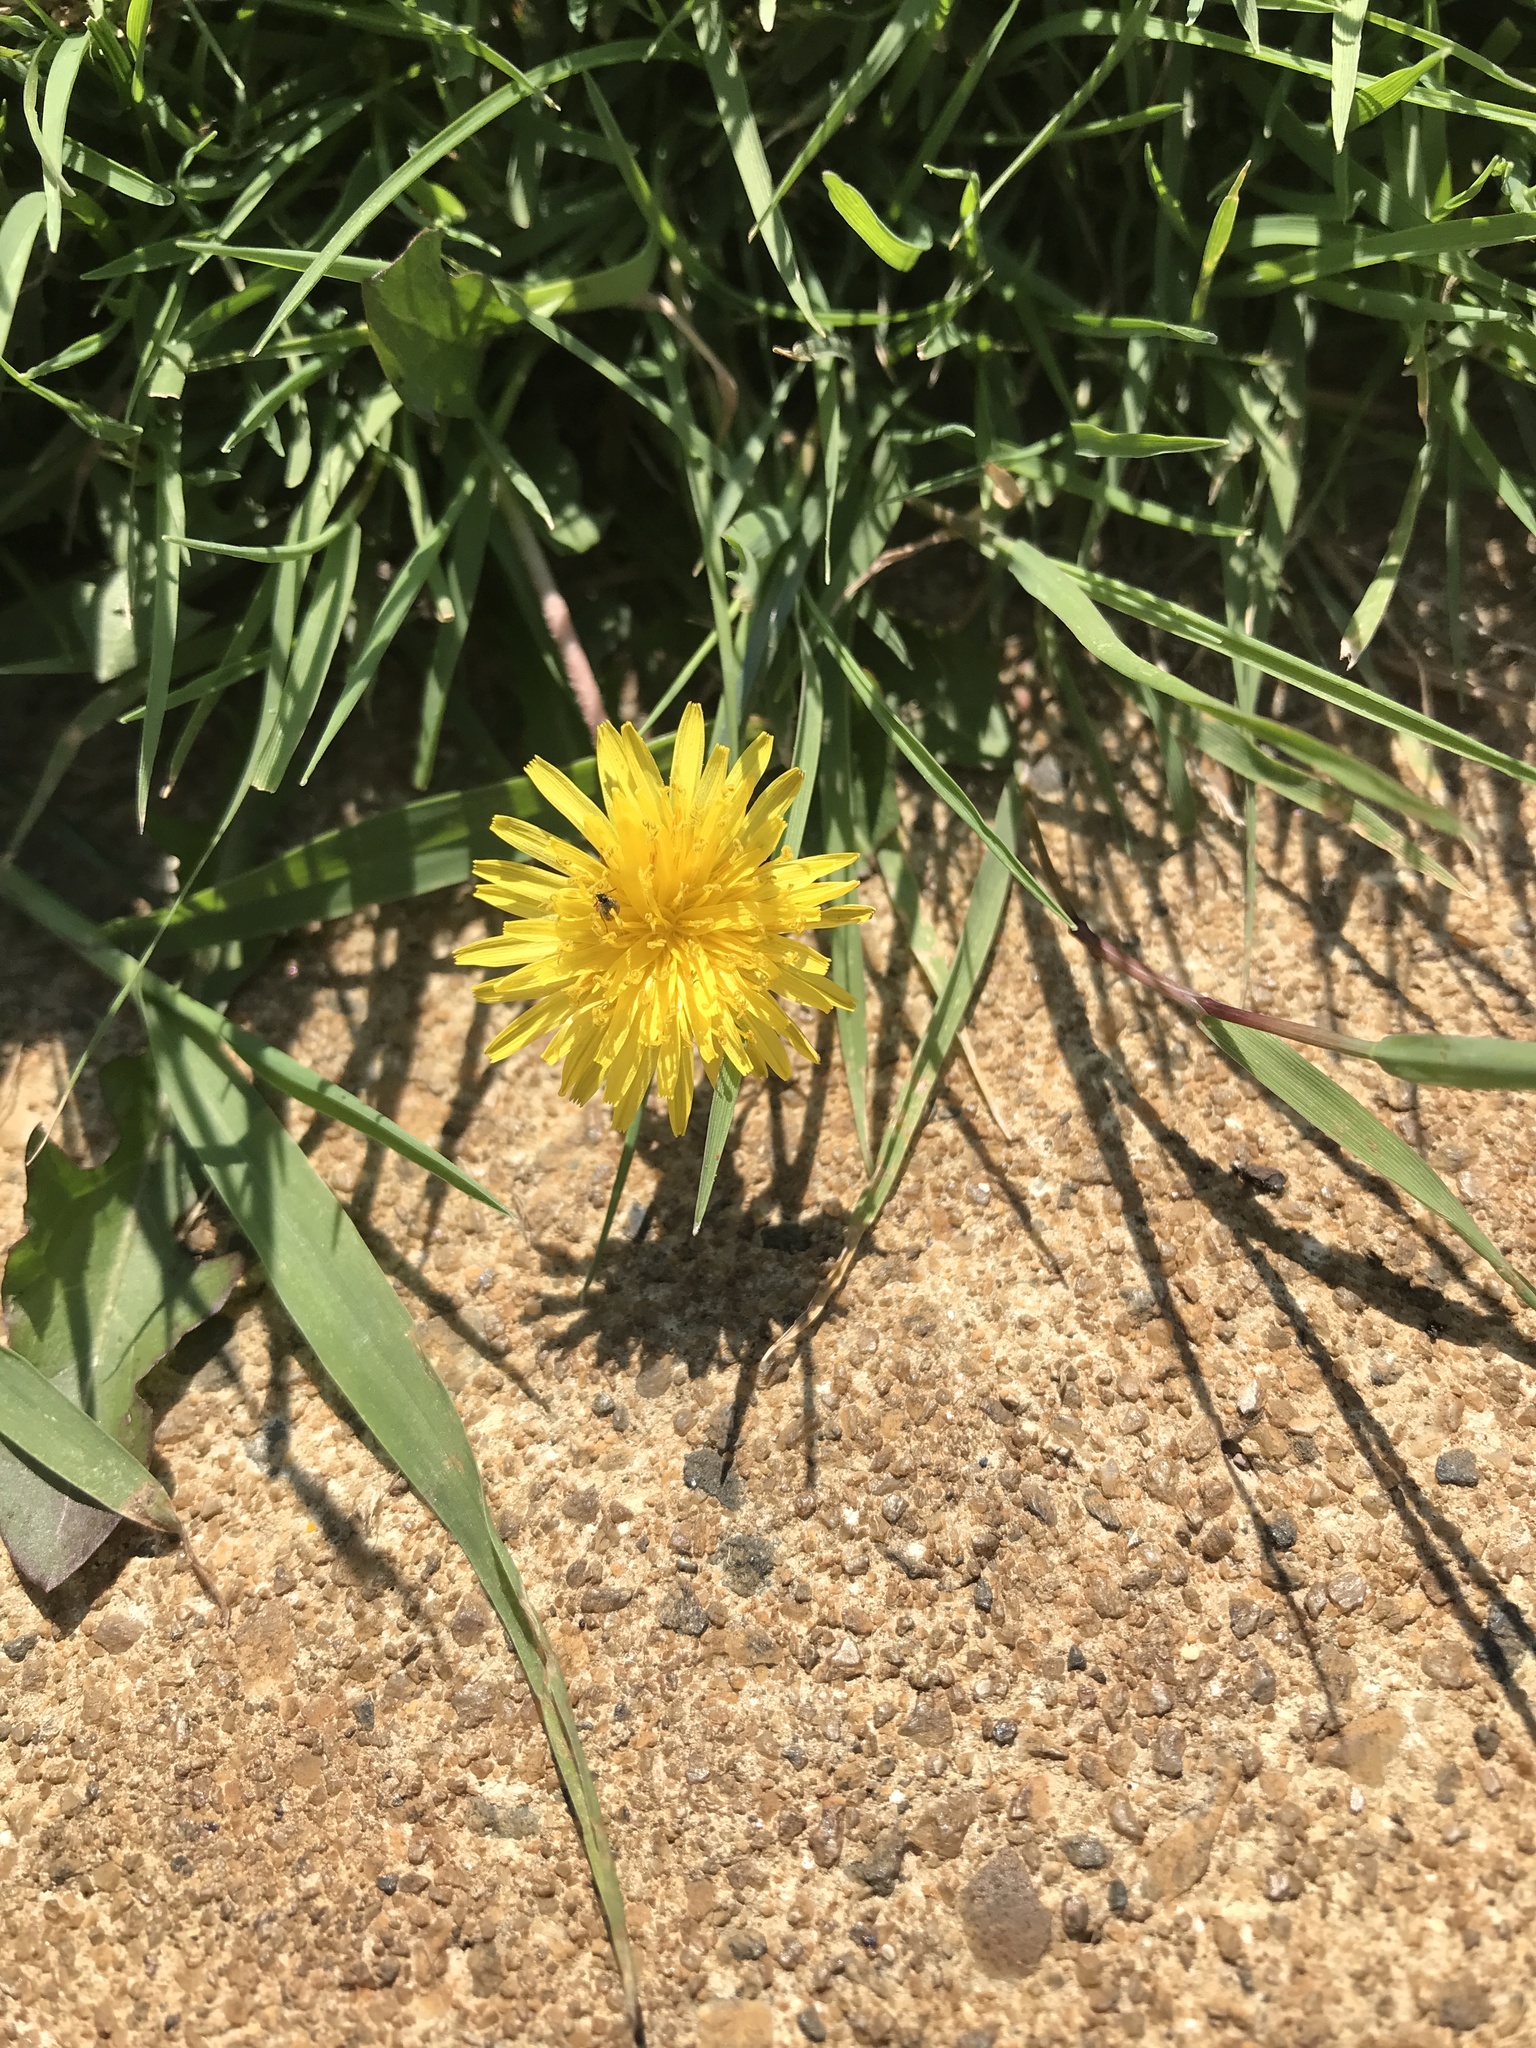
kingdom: Plantae
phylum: Tracheophyta
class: Magnoliopsida
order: Asterales
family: Asteraceae
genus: Taraxacum
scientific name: Taraxacum officinale
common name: Common dandelion
